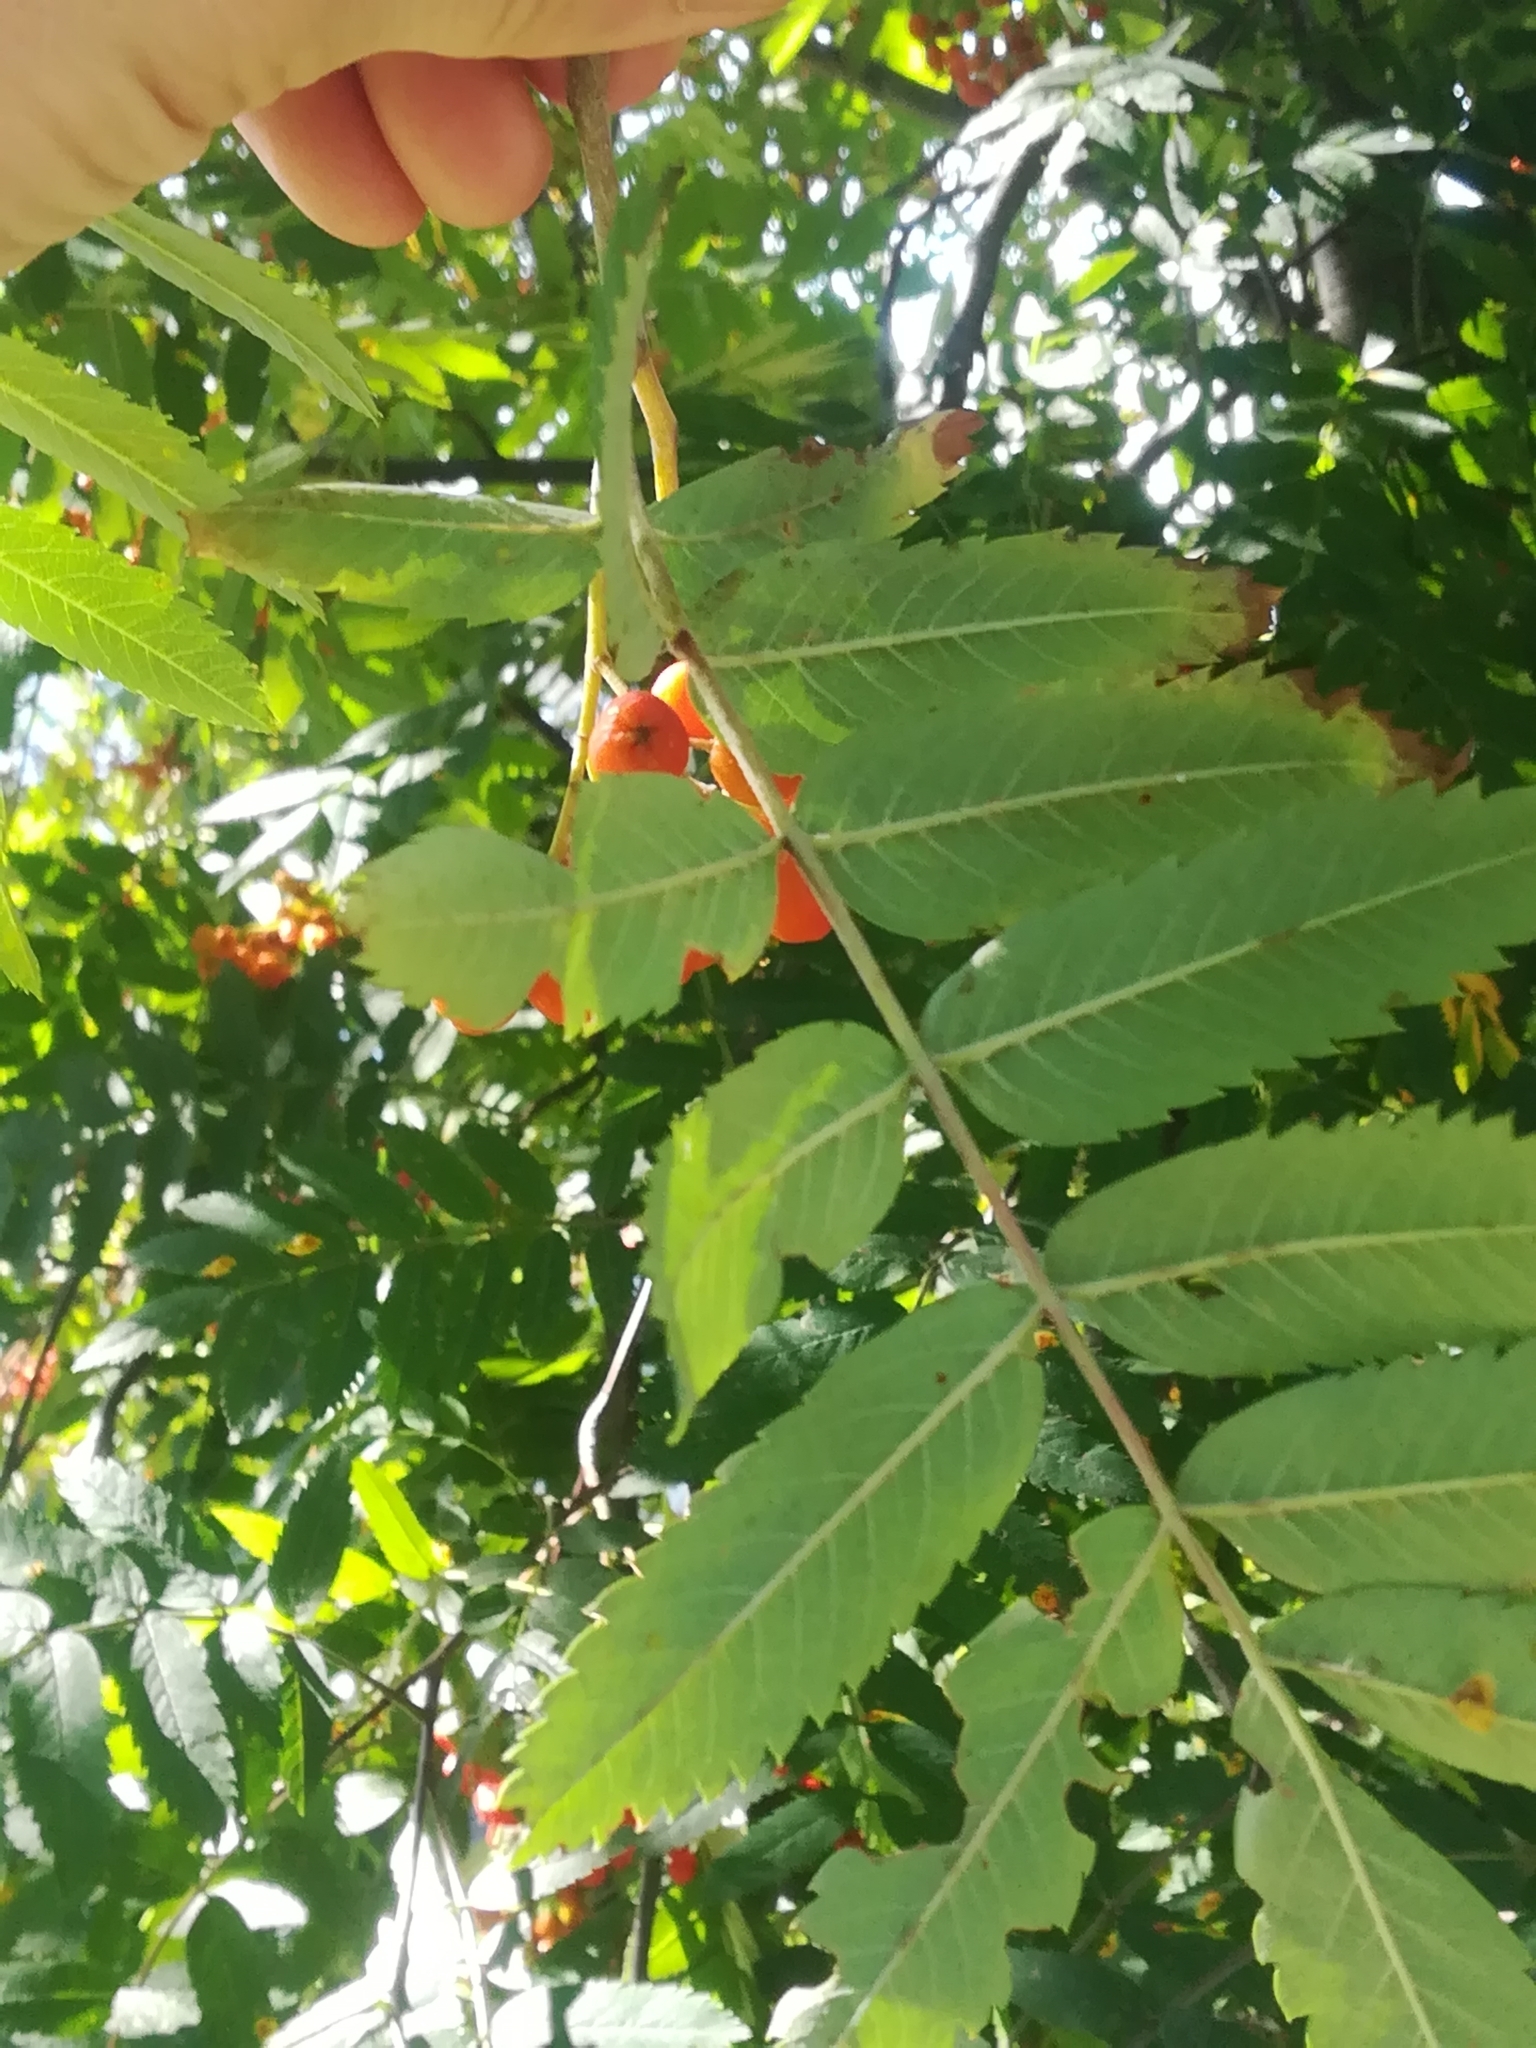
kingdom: Plantae
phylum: Tracheophyta
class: Magnoliopsida
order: Rosales
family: Rosaceae
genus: Sorbus
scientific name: Sorbus aucuparia
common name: Rowan
